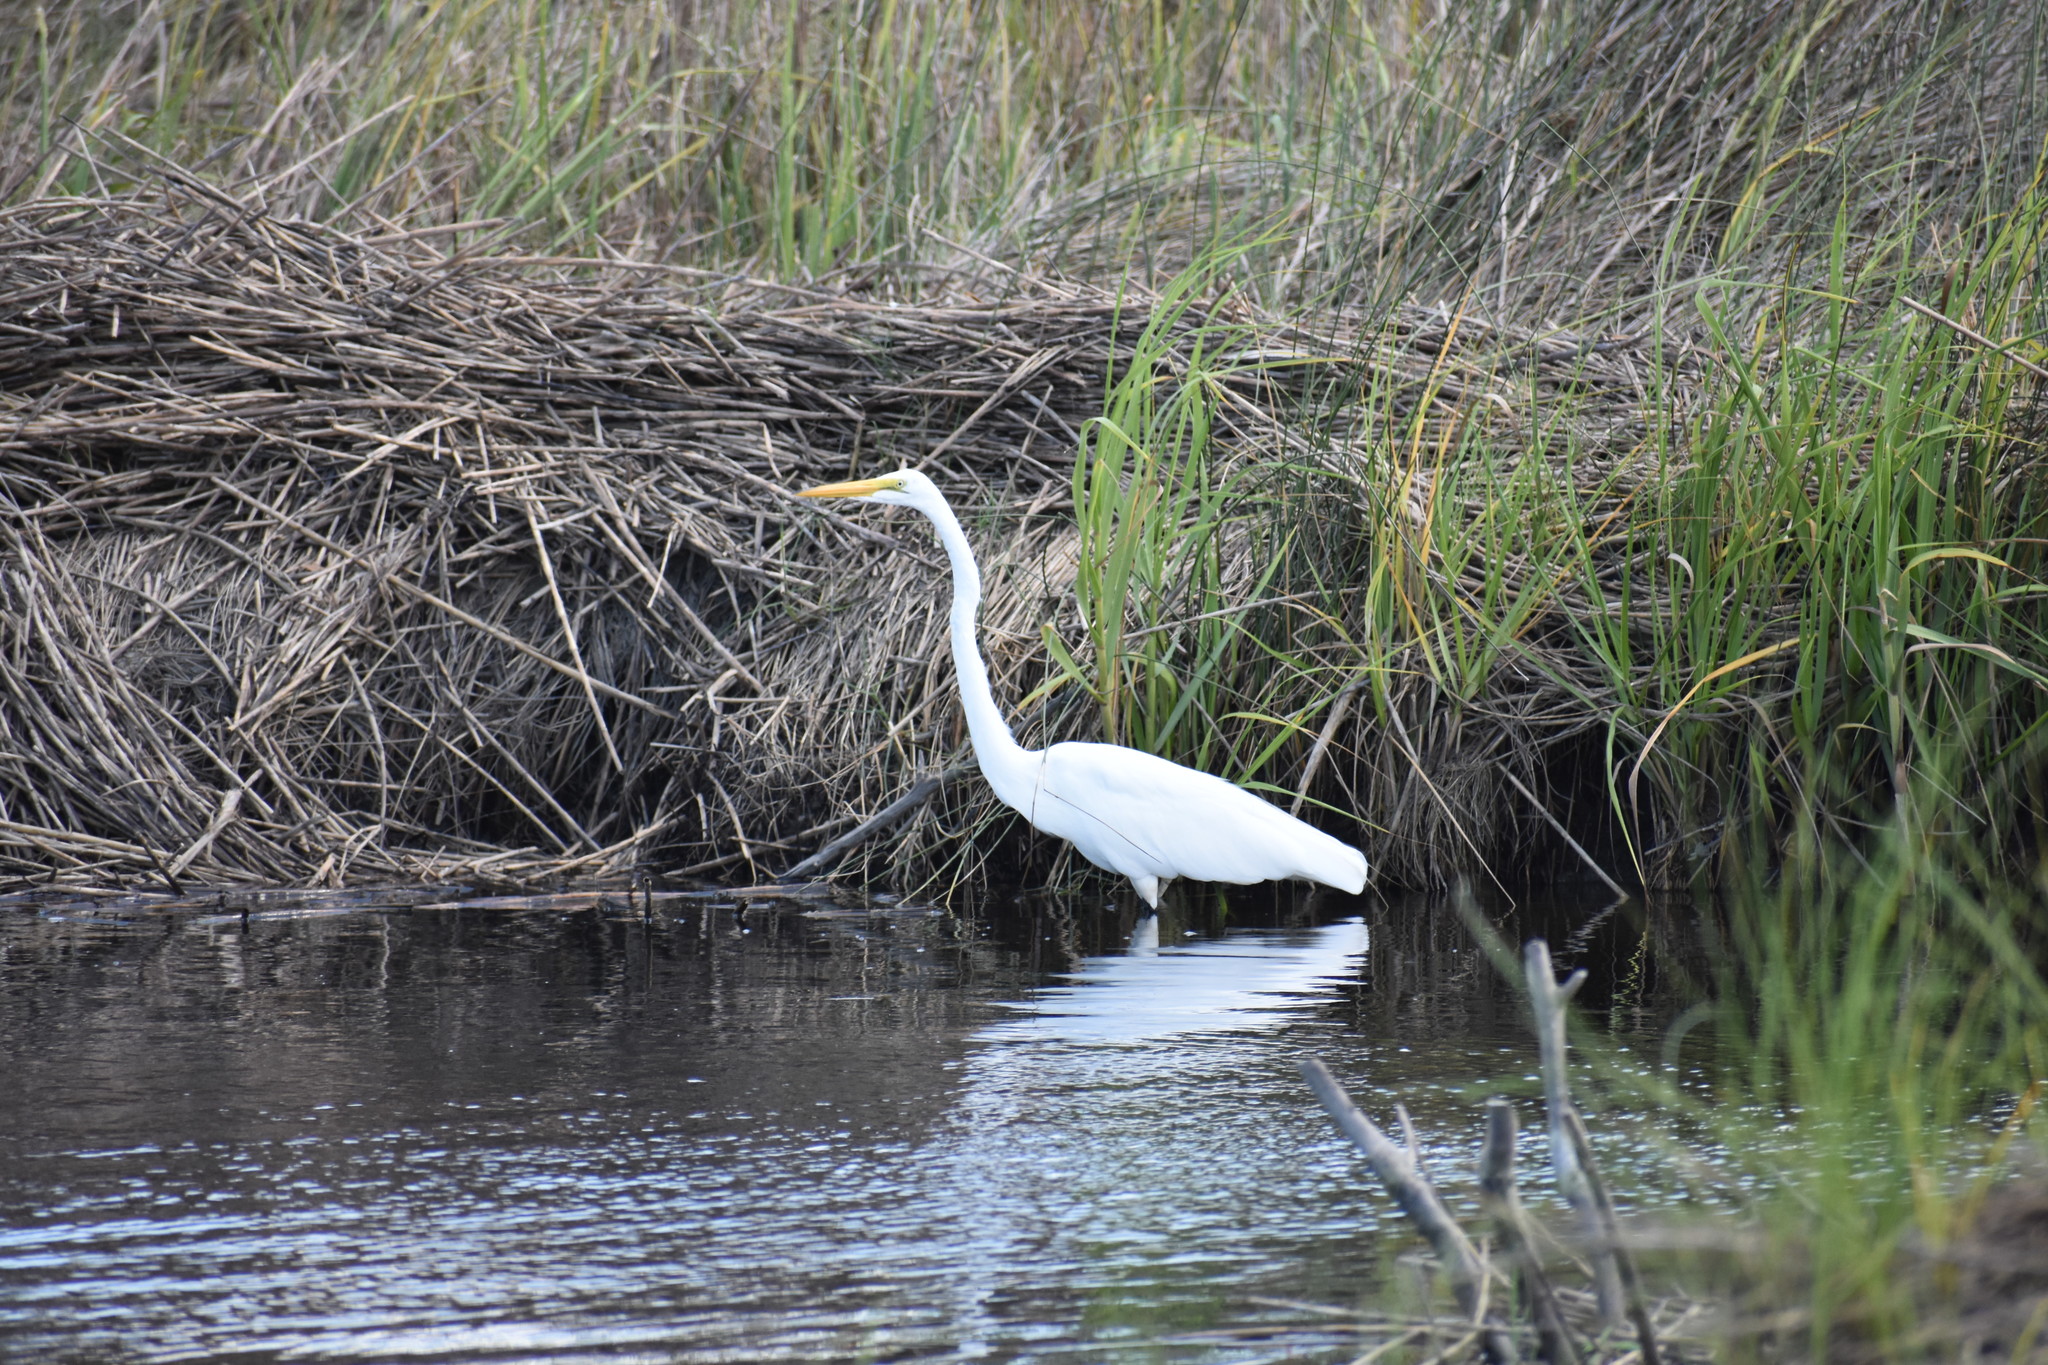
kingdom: Animalia
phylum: Chordata
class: Aves
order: Pelecaniformes
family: Ardeidae
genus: Ardea
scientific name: Ardea alba
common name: Great egret
